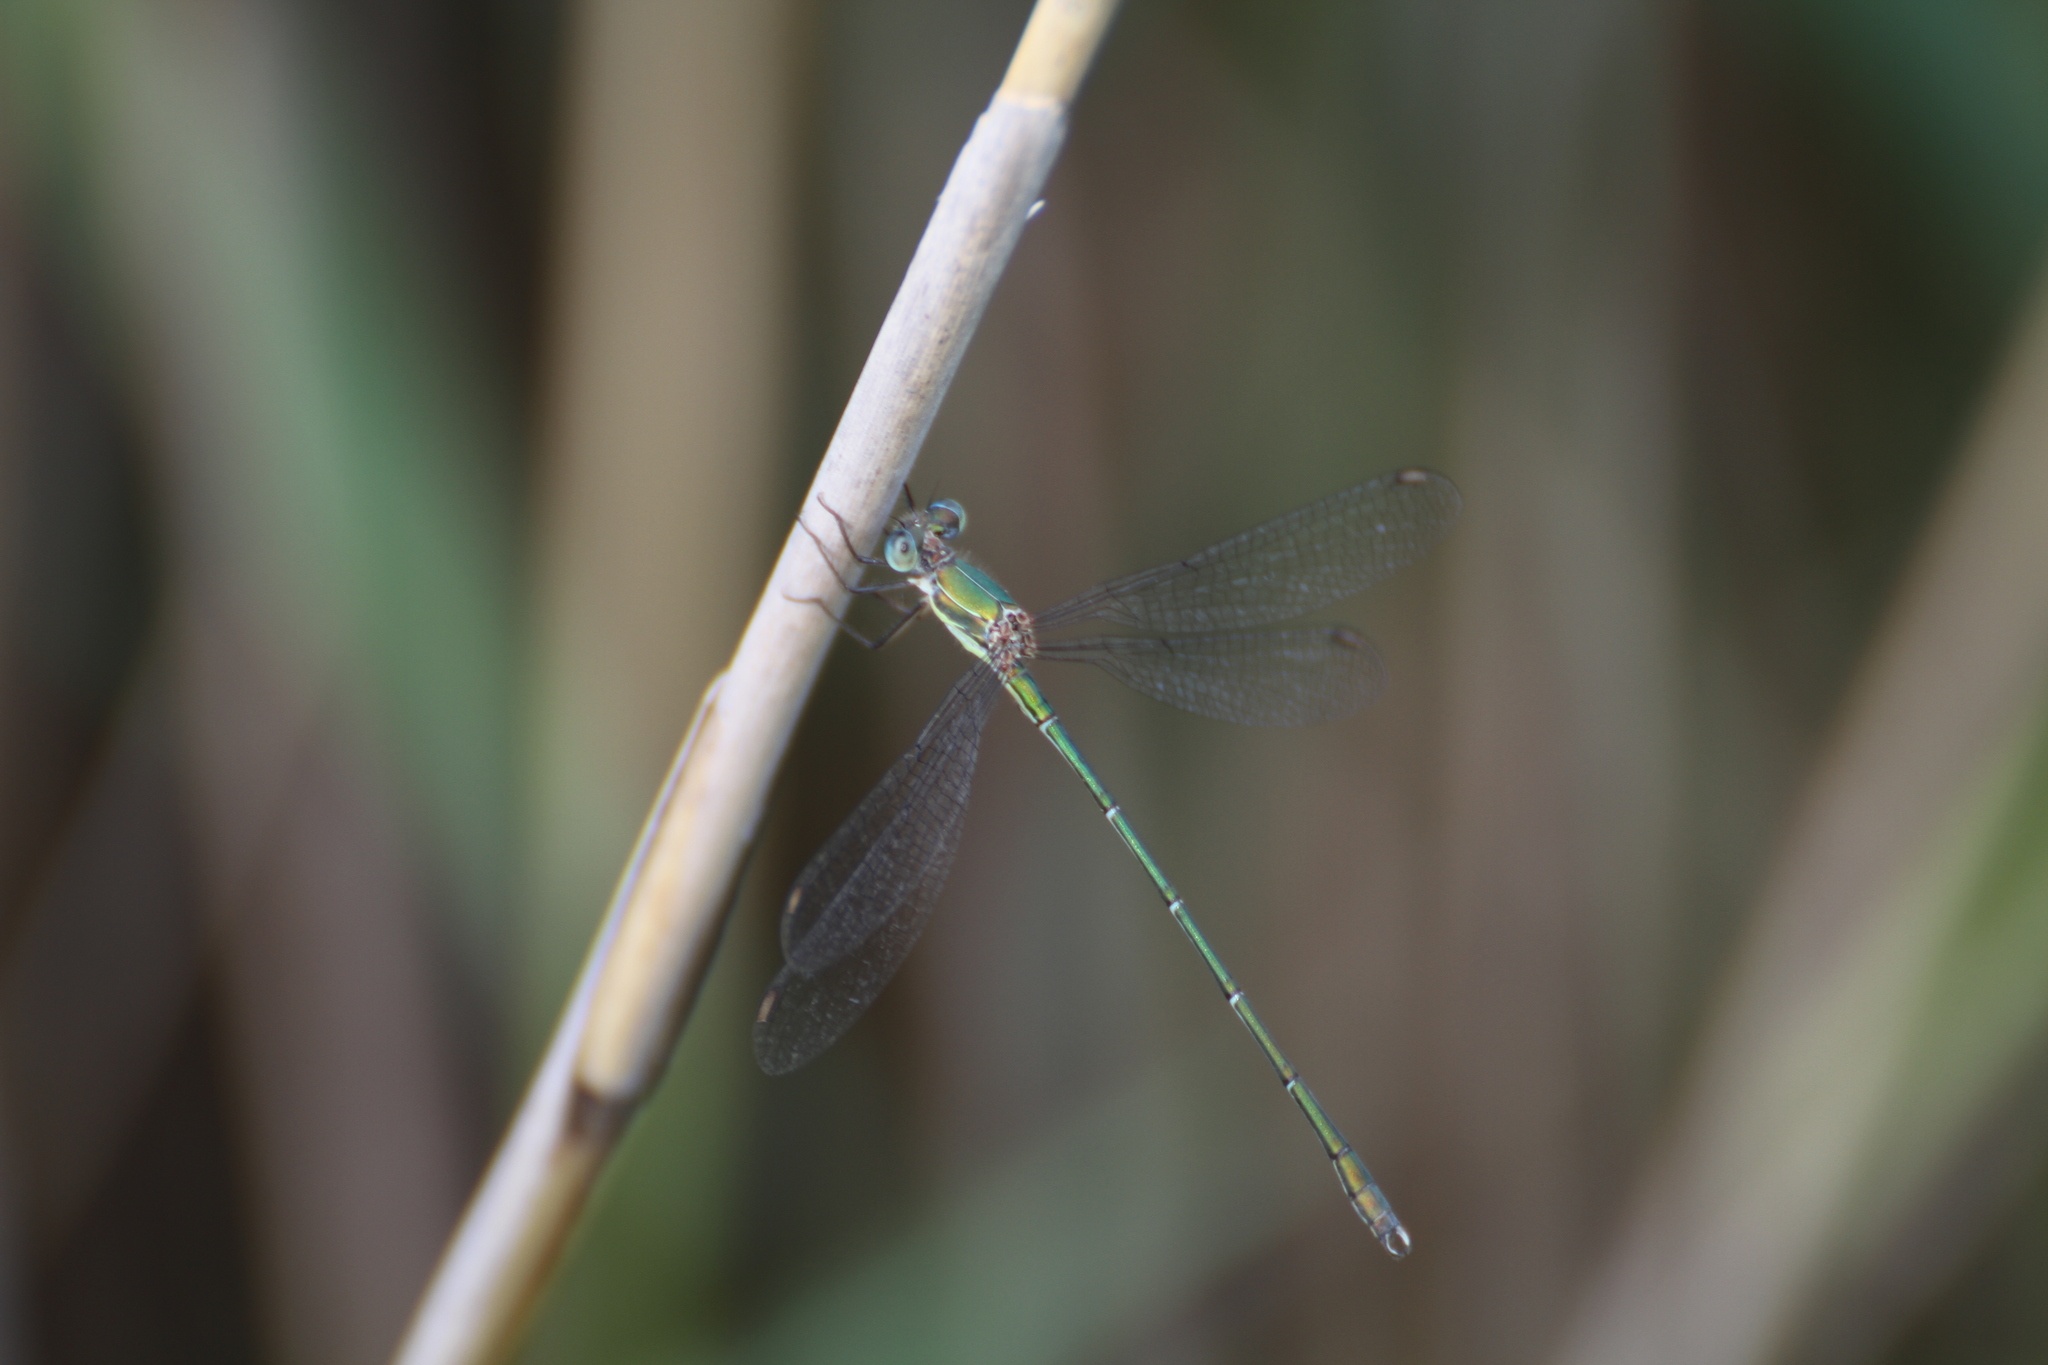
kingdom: Animalia
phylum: Arthropoda
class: Insecta
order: Odonata
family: Lestidae
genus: Chalcolestes
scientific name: Chalcolestes viridis
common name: Green emerald damselfly
